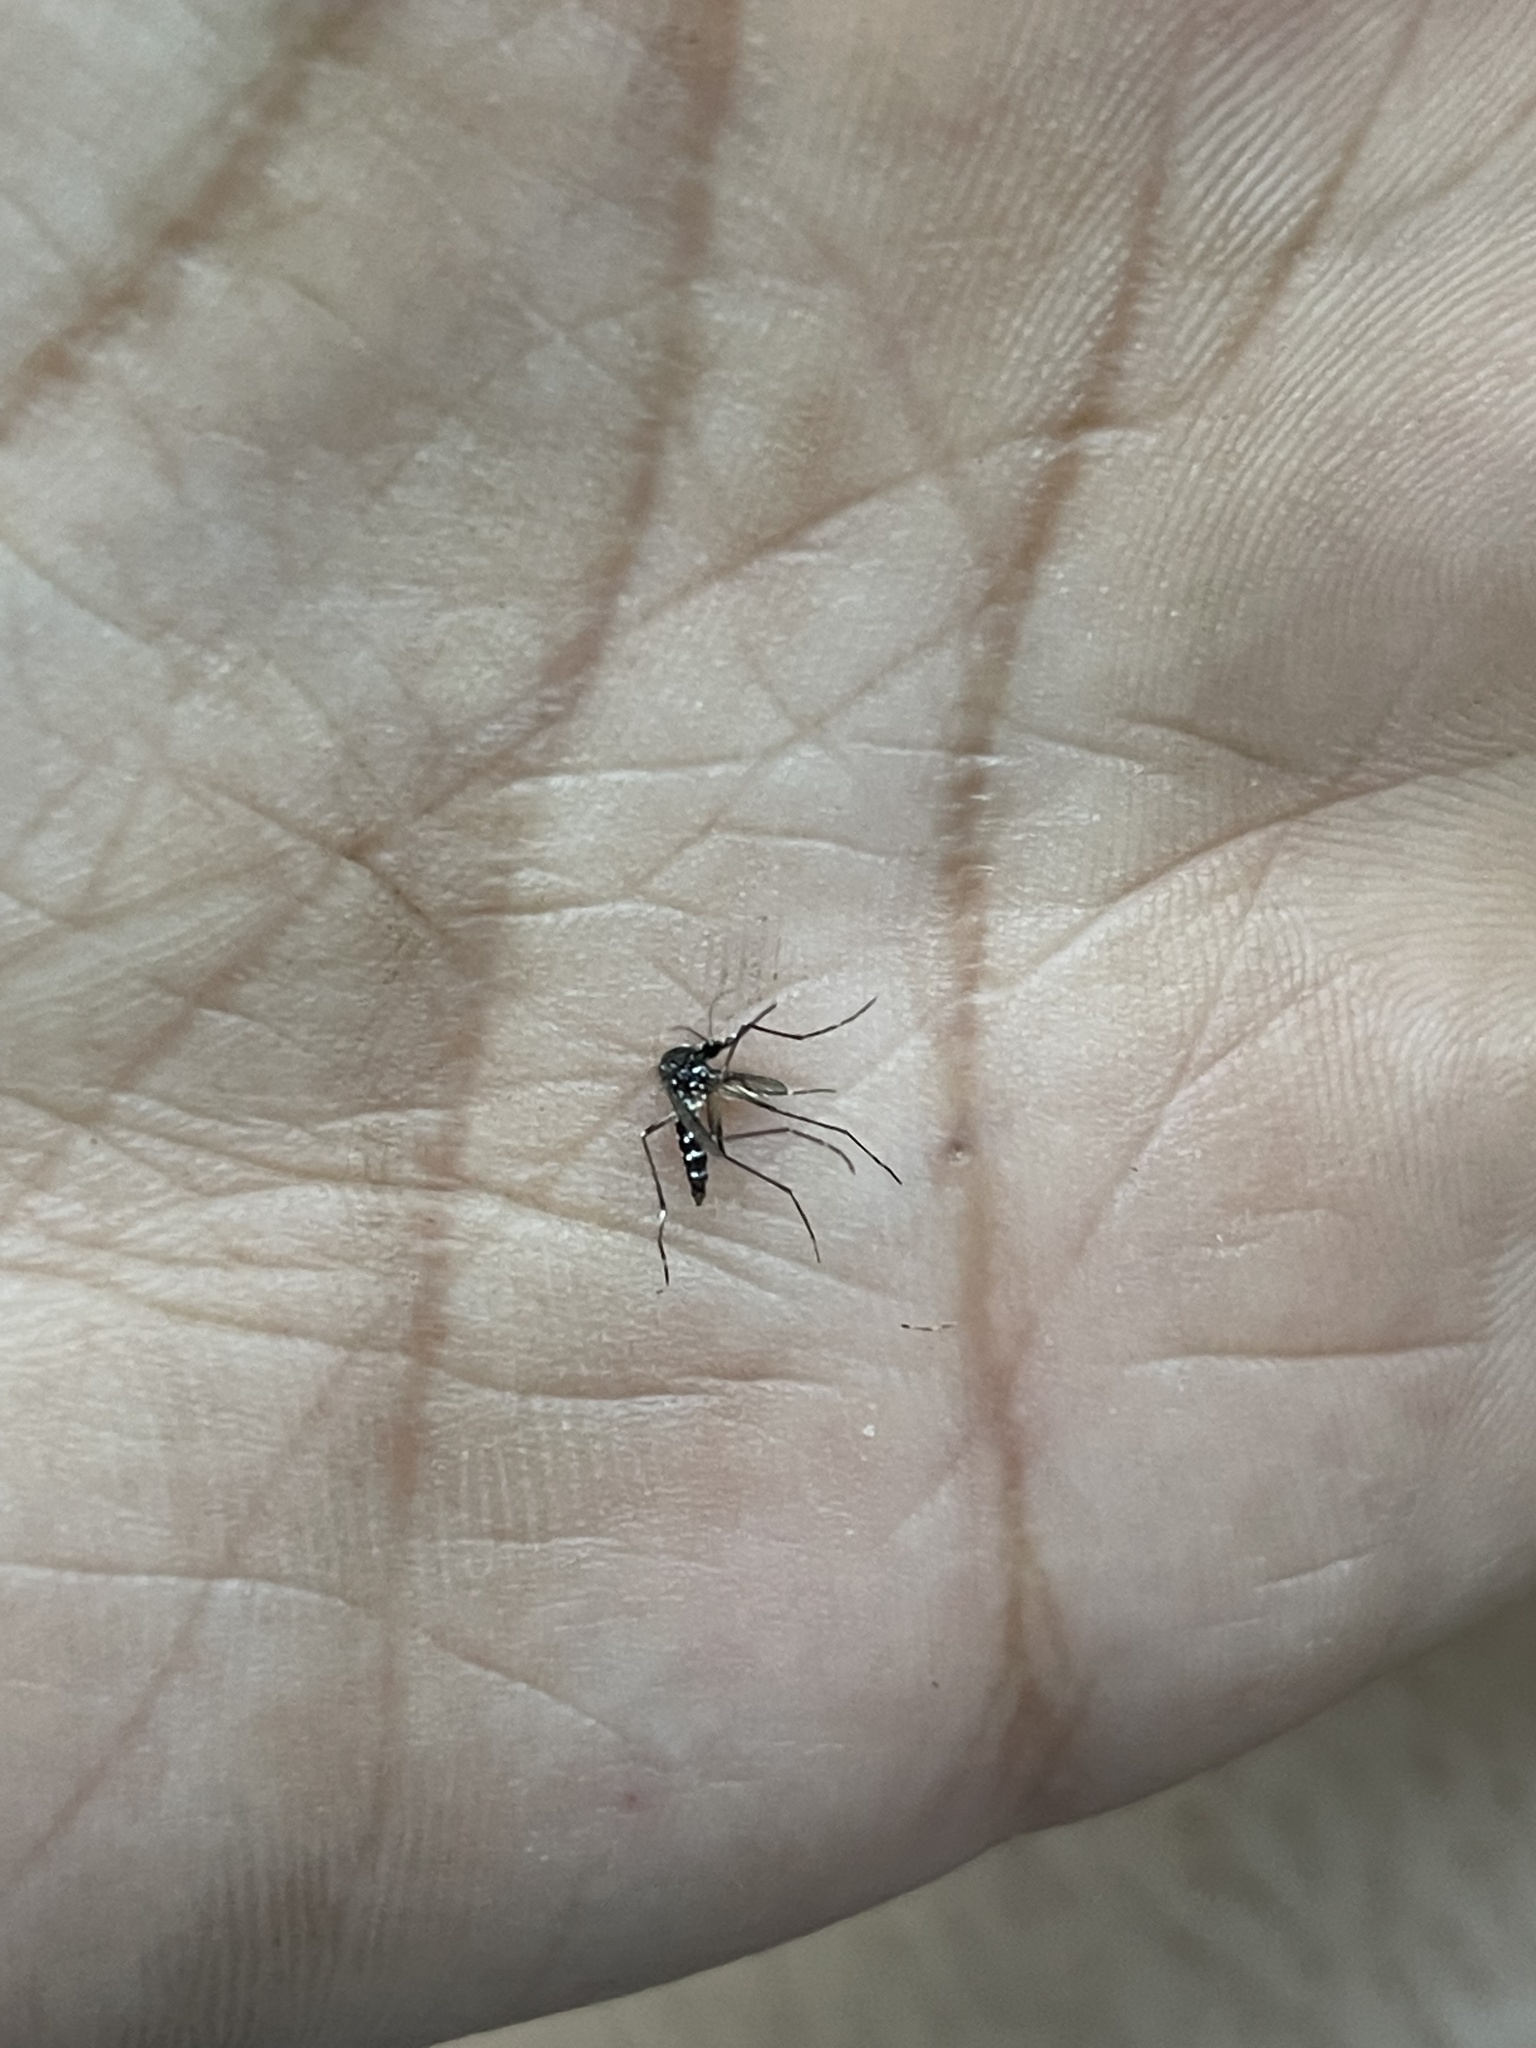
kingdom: Animalia
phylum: Arthropoda
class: Insecta
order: Diptera
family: Culicidae
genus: Aedes
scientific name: Aedes albopictus
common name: Tiger mosquito
